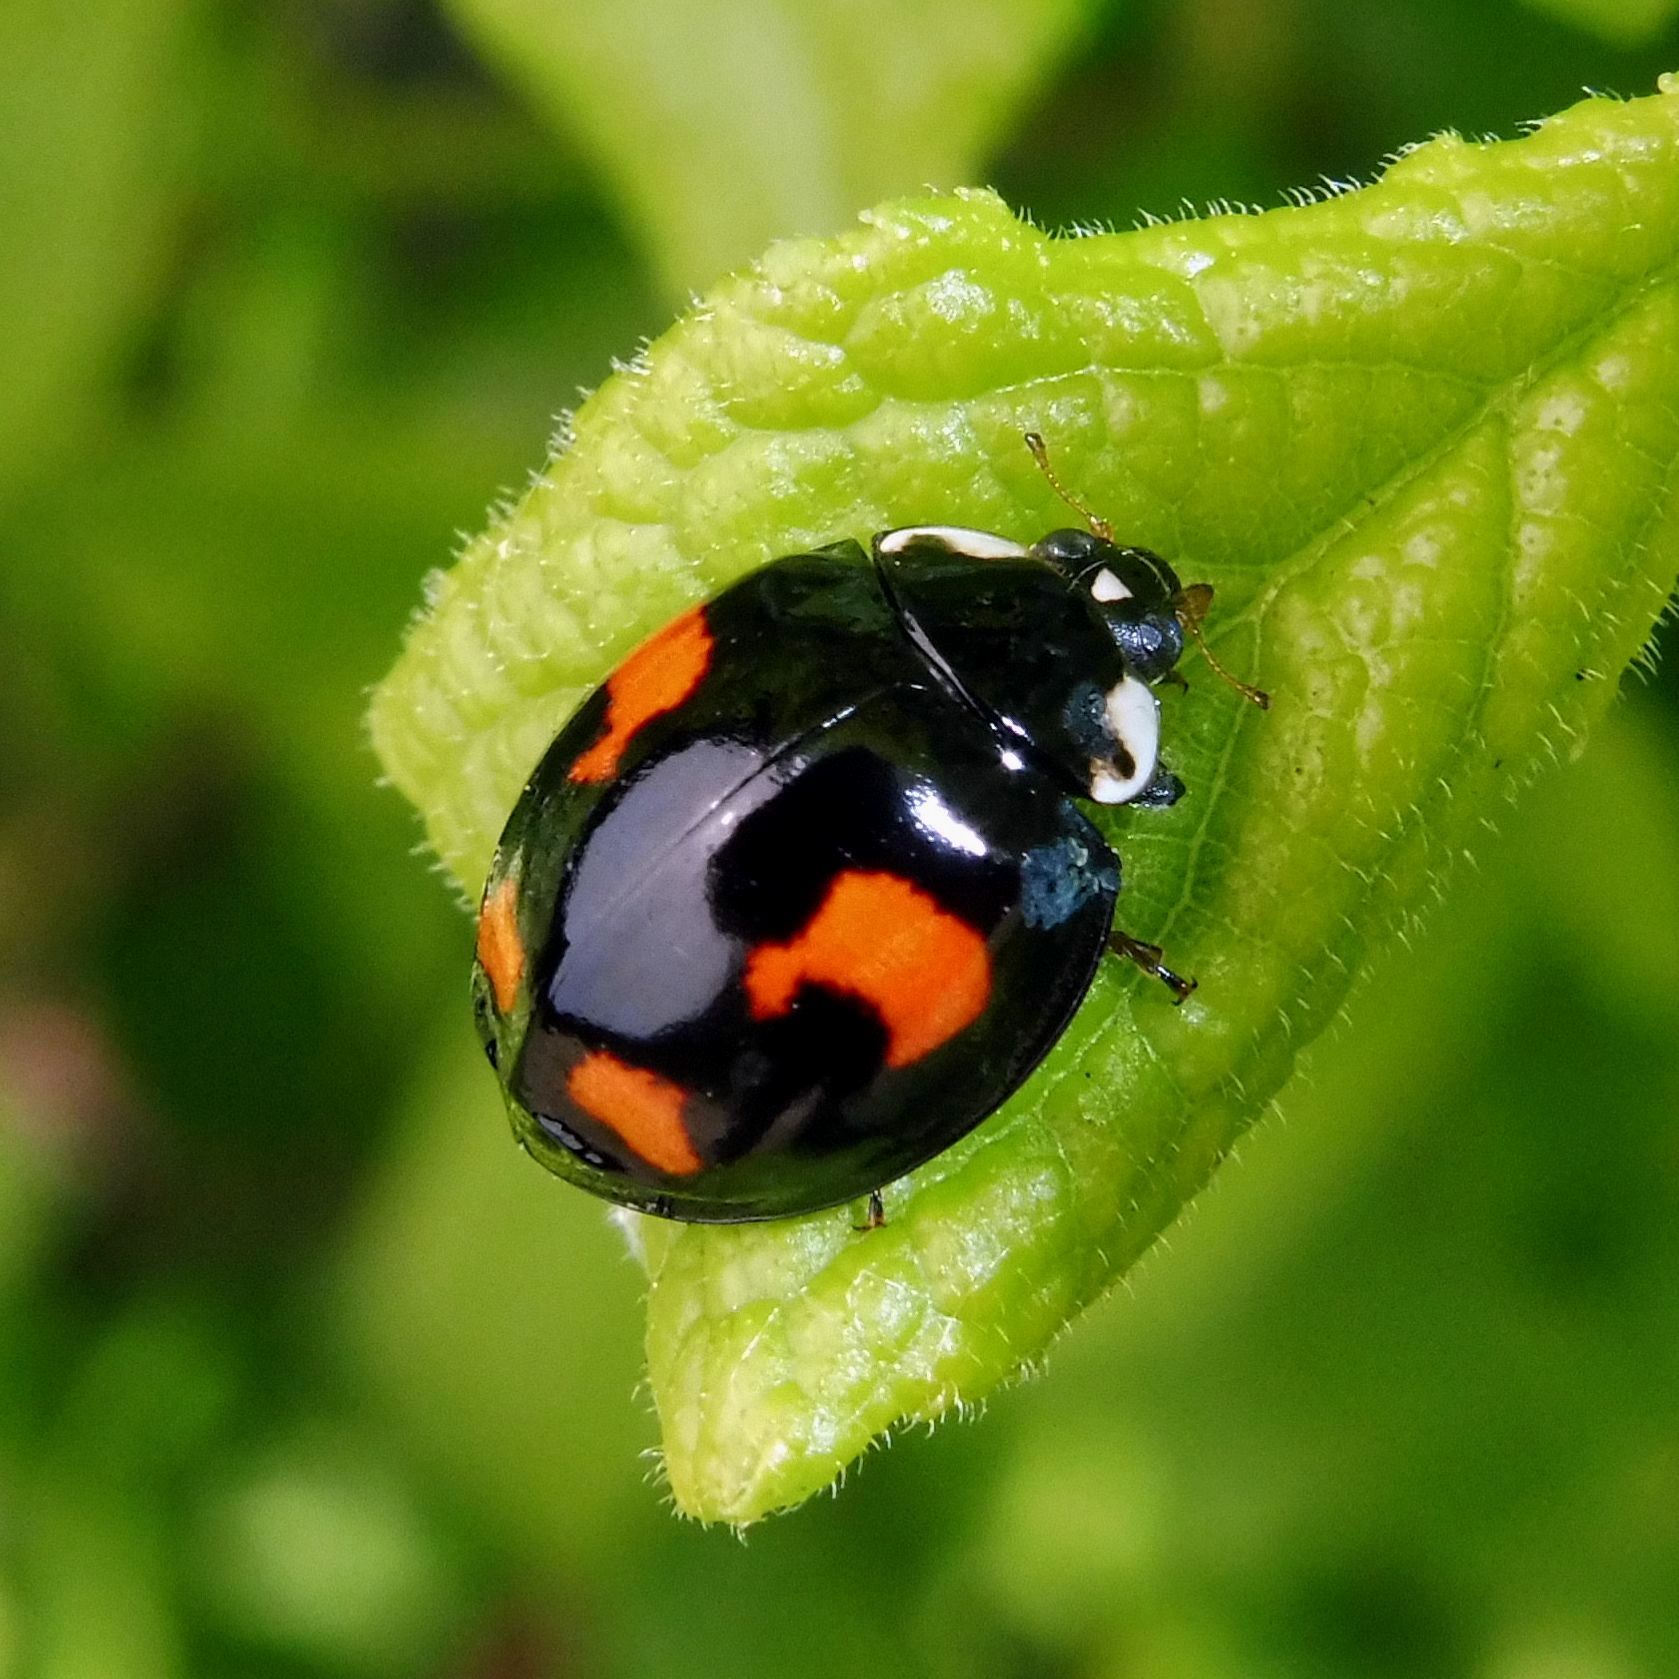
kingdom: Animalia
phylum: Arthropoda
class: Insecta
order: Coleoptera
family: Coccinellidae
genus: Harmonia
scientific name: Harmonia axyridis
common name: Harlequin ladybird
